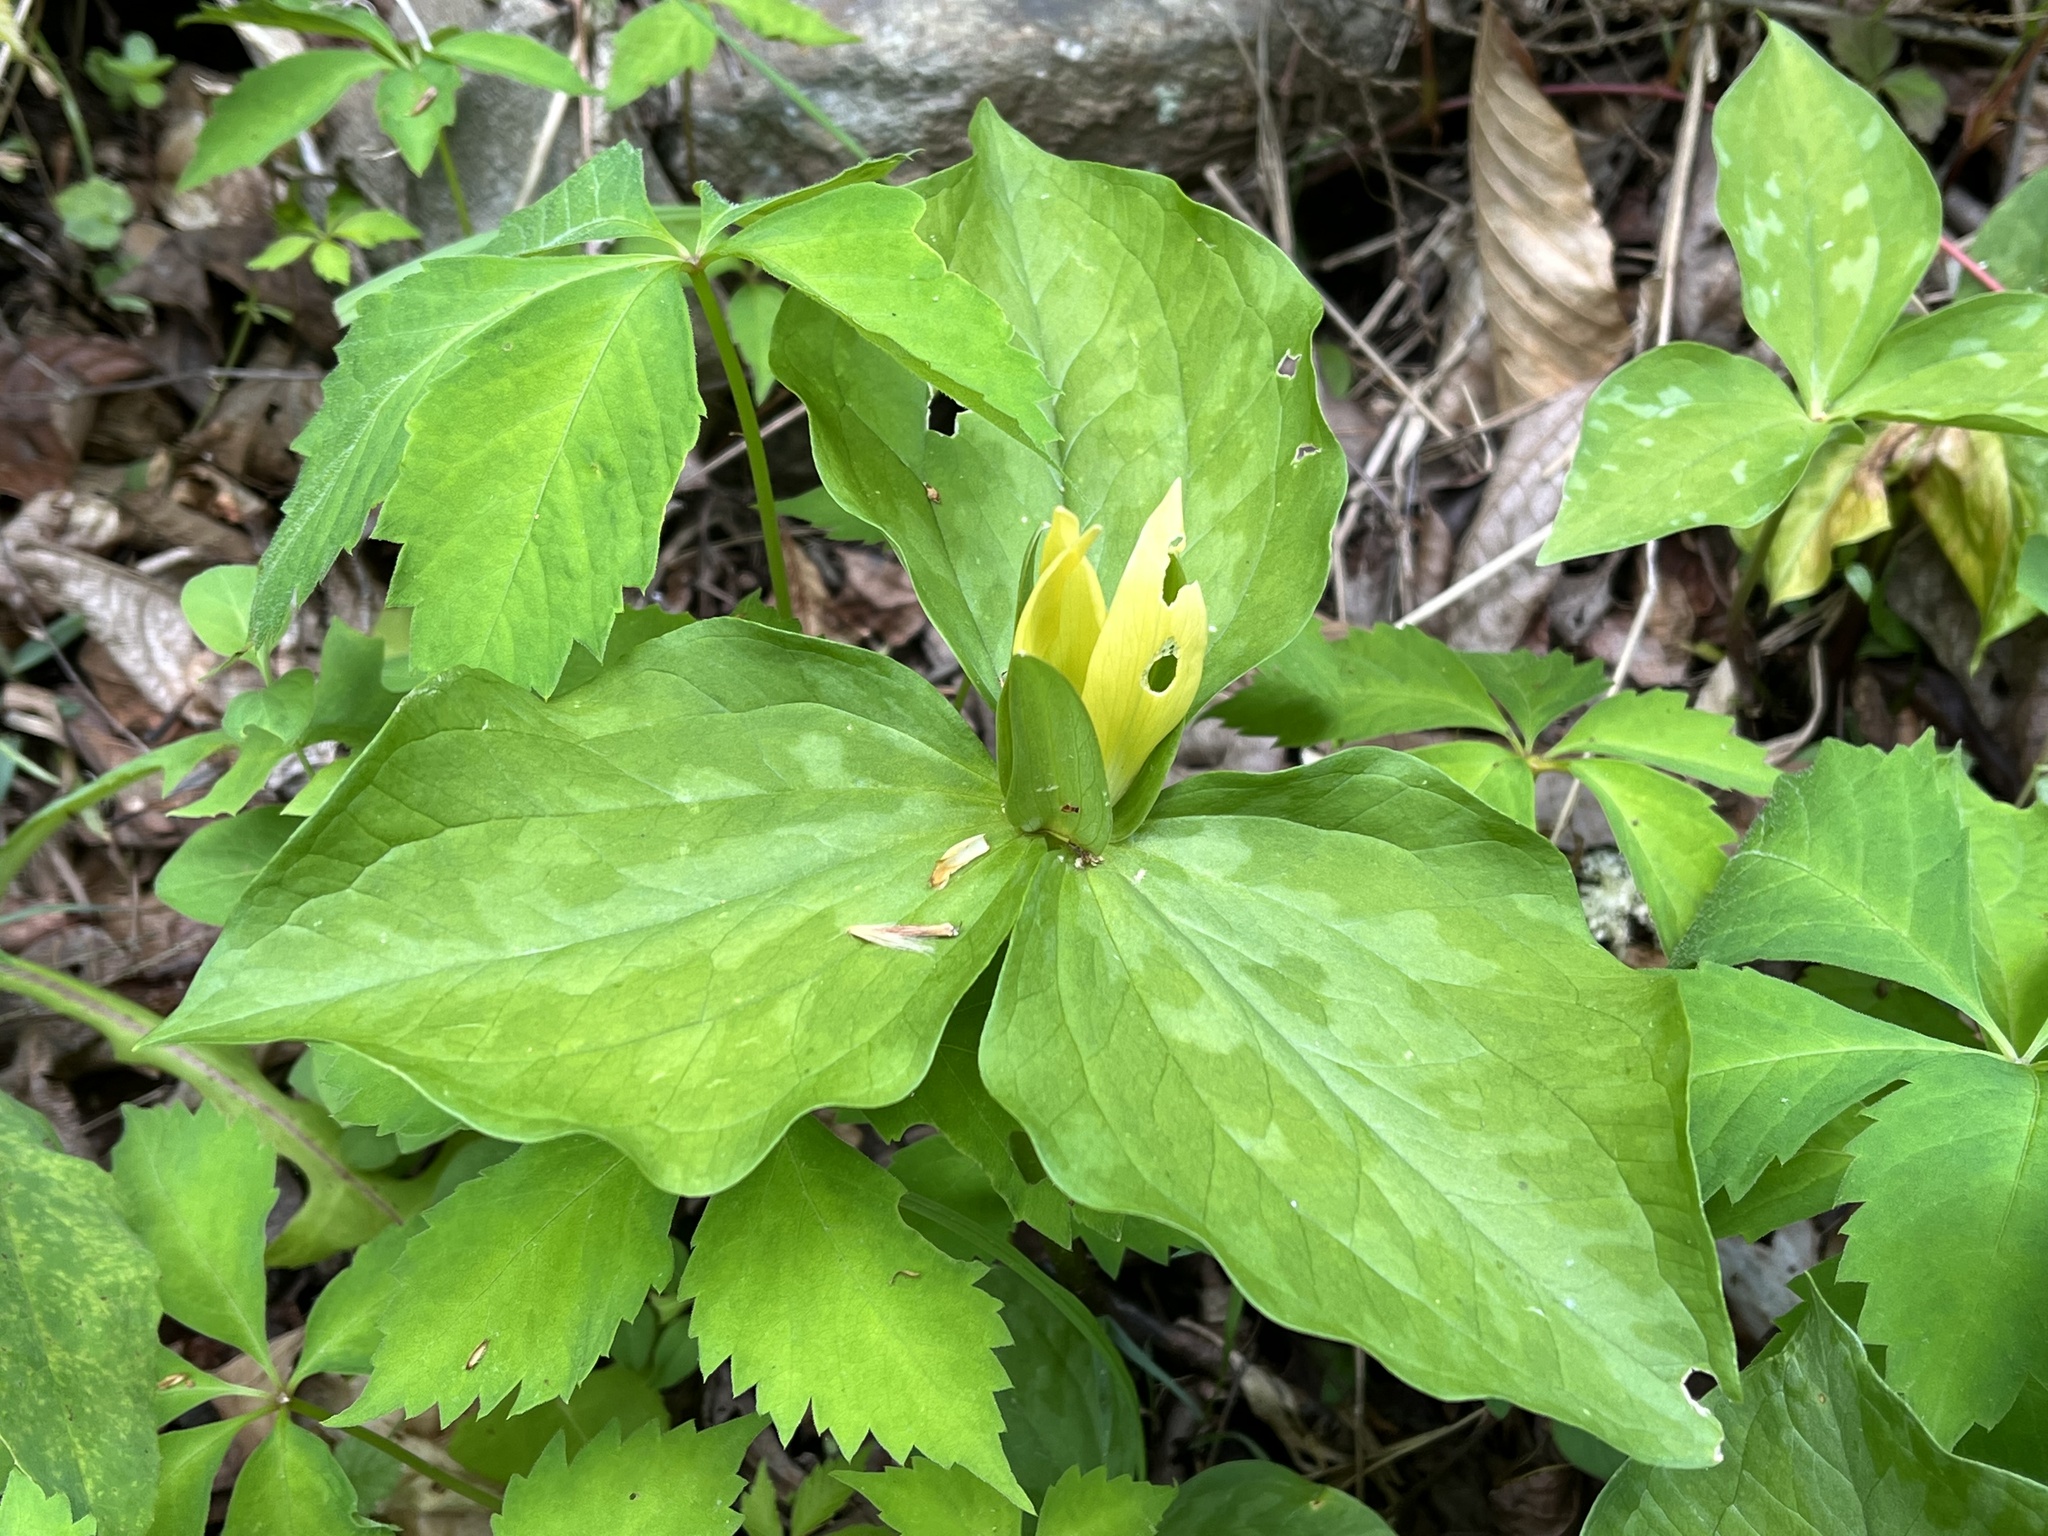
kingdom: Plantae
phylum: Tracheophyta
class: Liliopsida
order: Liliales
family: Melanthiaceae
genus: Trillium
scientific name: Trillium luteum
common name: Wax trillium
